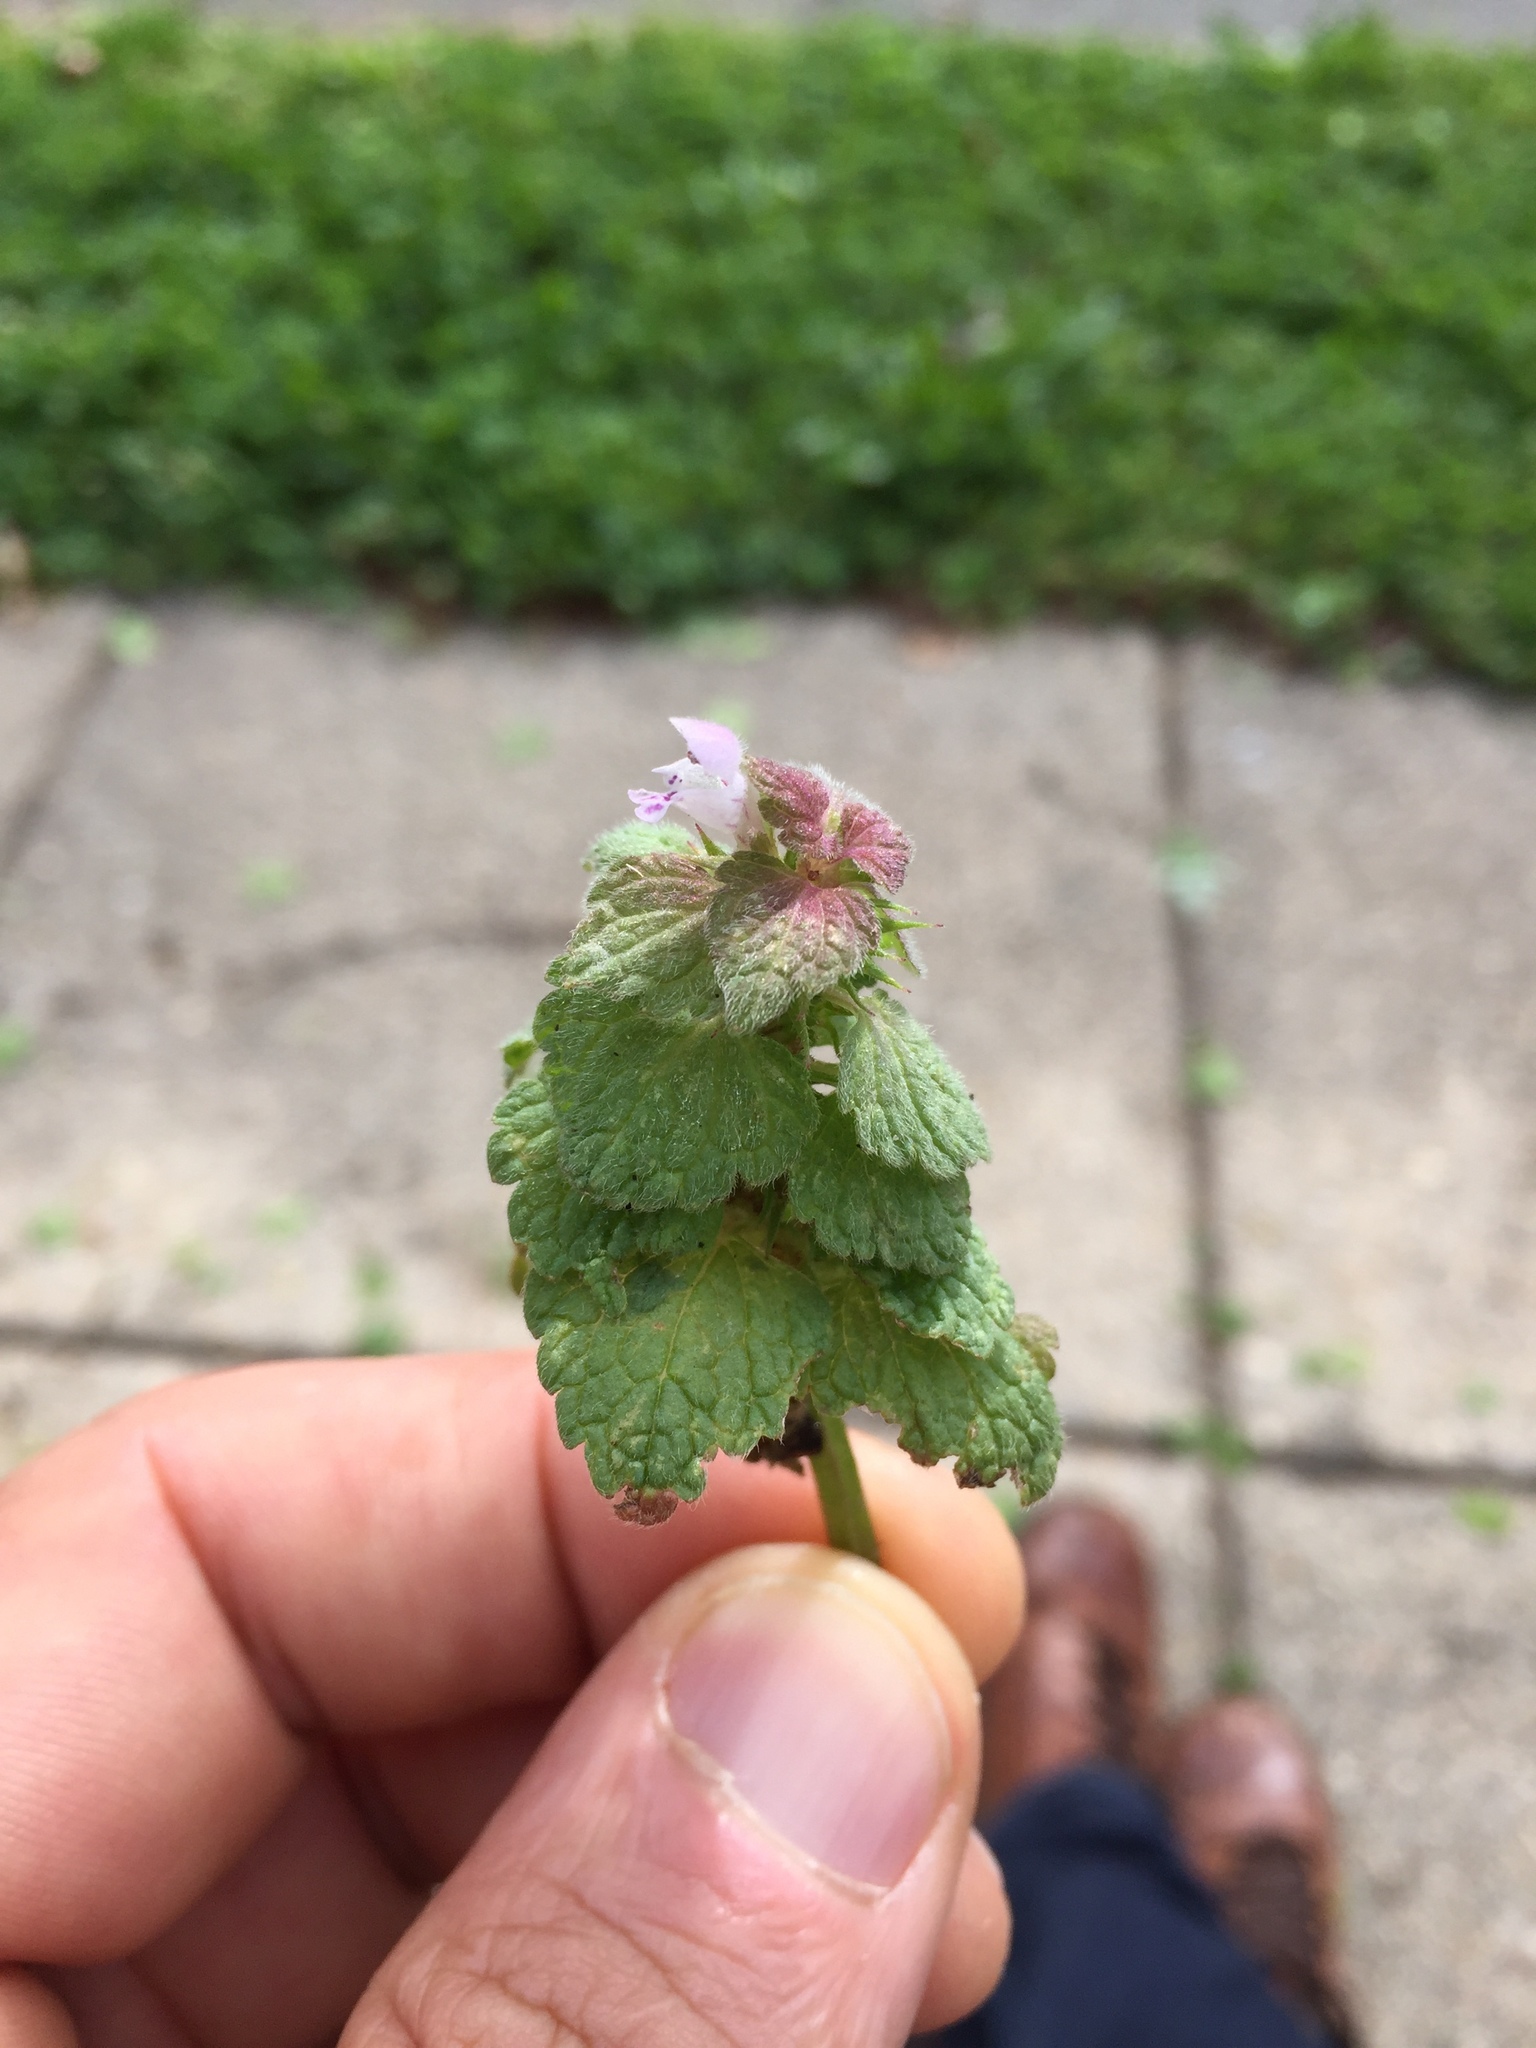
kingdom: Plantae
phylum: Tracheophyta
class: Magnoliopsida
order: Lamiales
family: Lamiaceae
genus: Lamium
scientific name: Lamium purpureum
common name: Red dead-nettle
